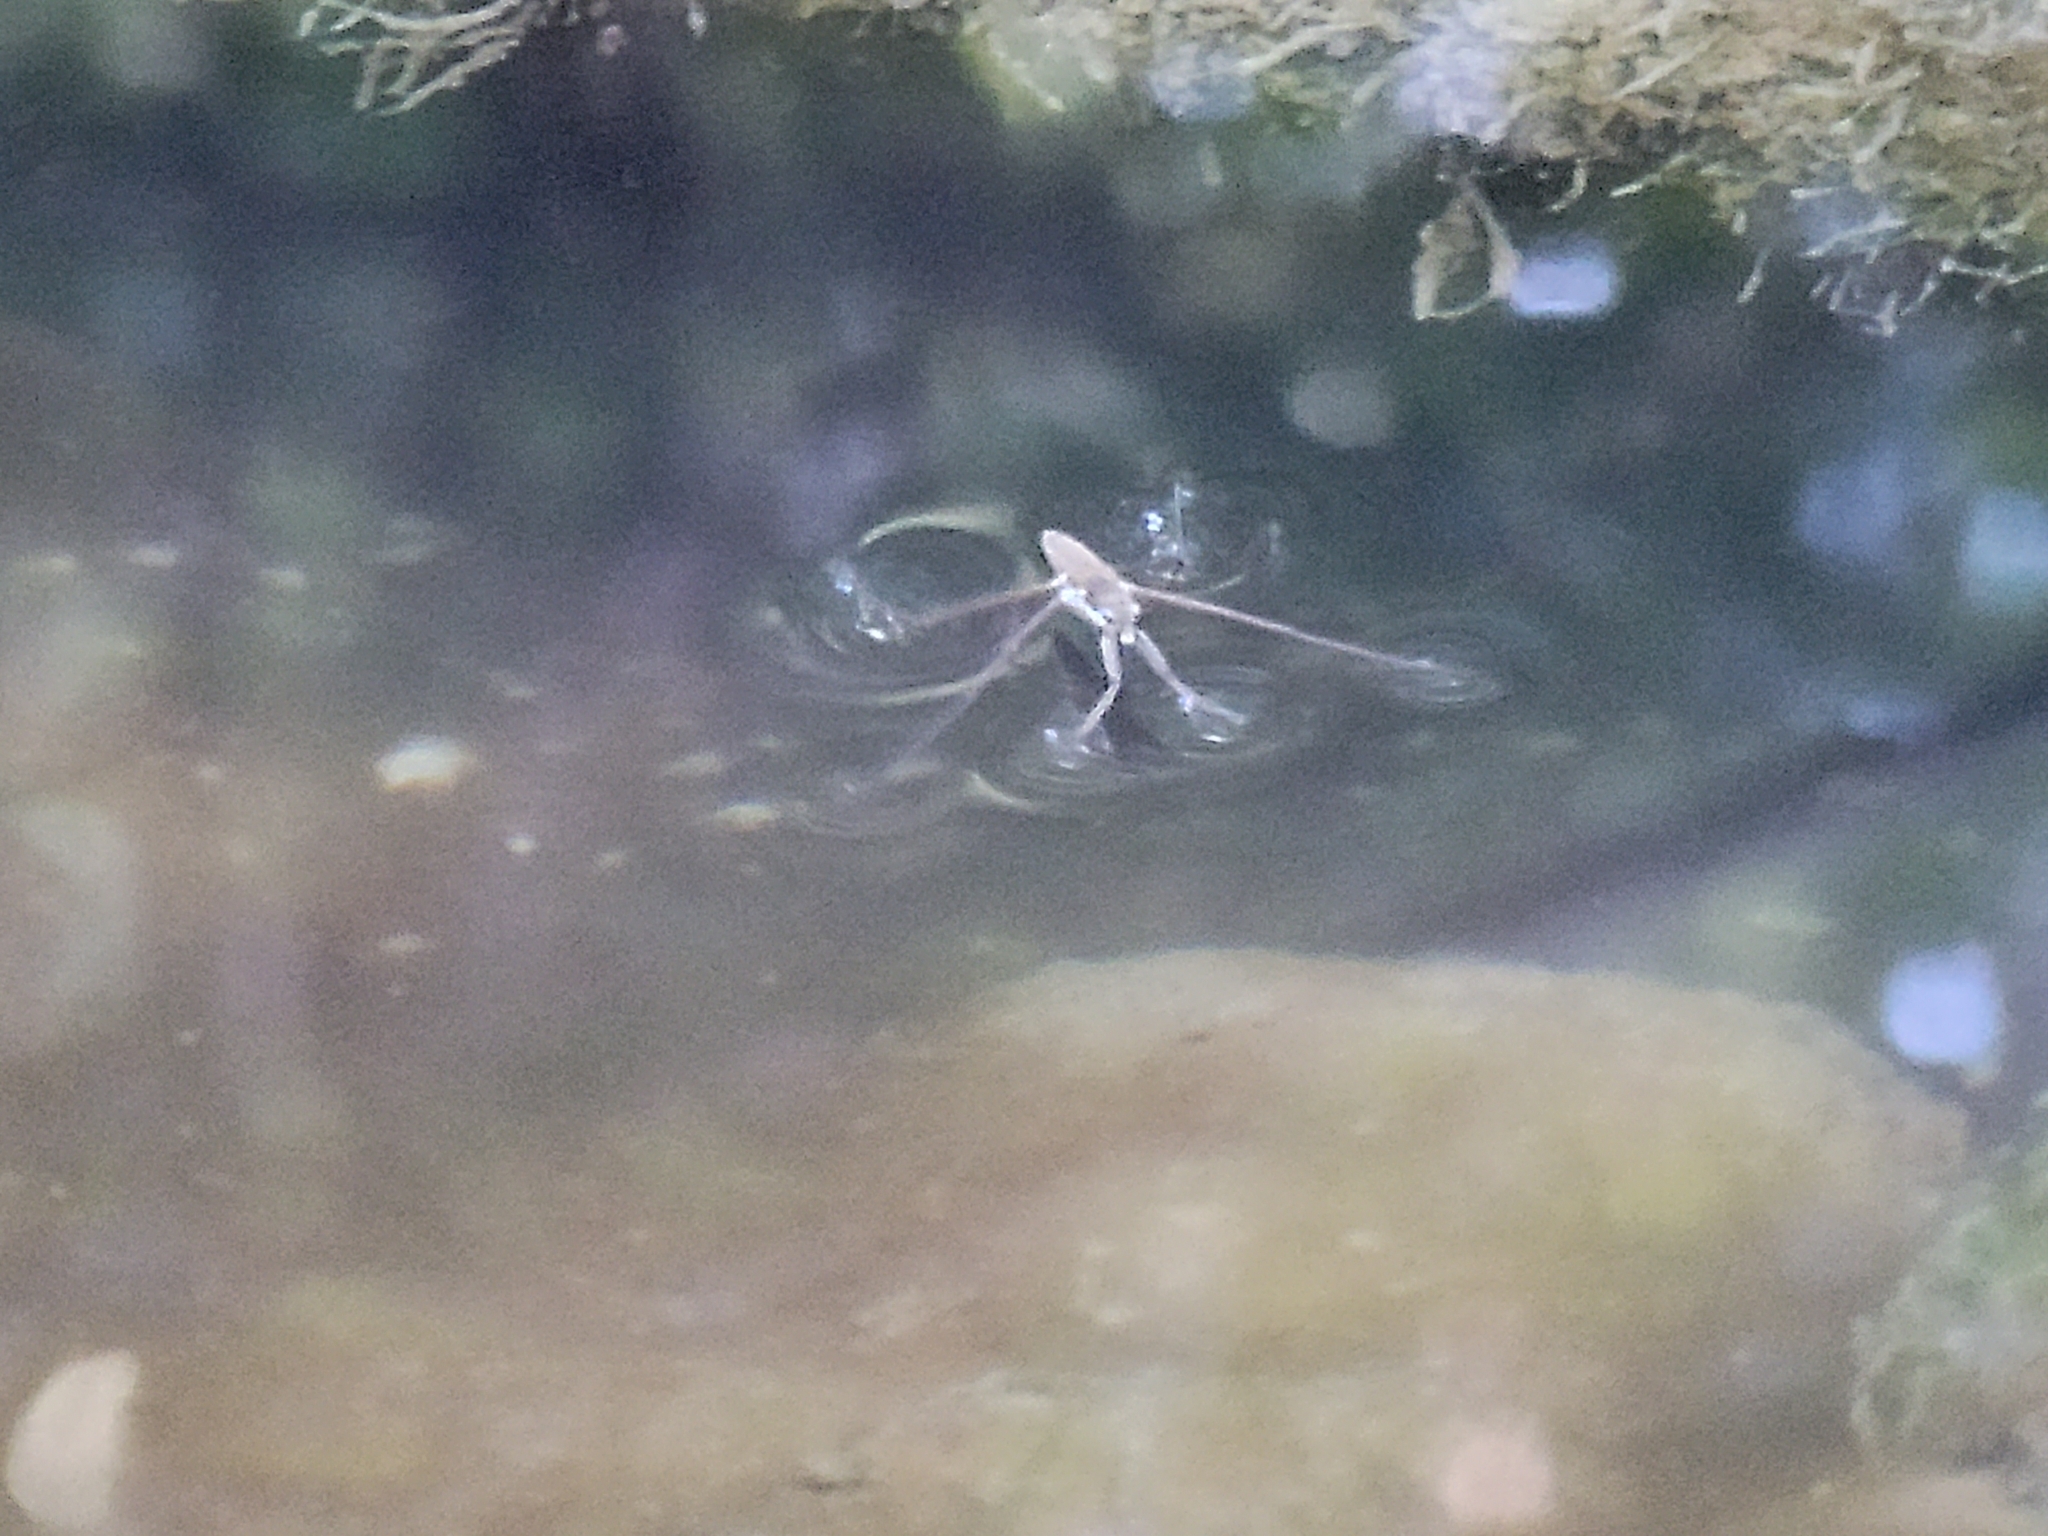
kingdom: Animalia
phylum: Arthropoda
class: Insecta
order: Hemiptera
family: Gerridae
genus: Aquarius
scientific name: Aquarius remigis
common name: Common water strider
